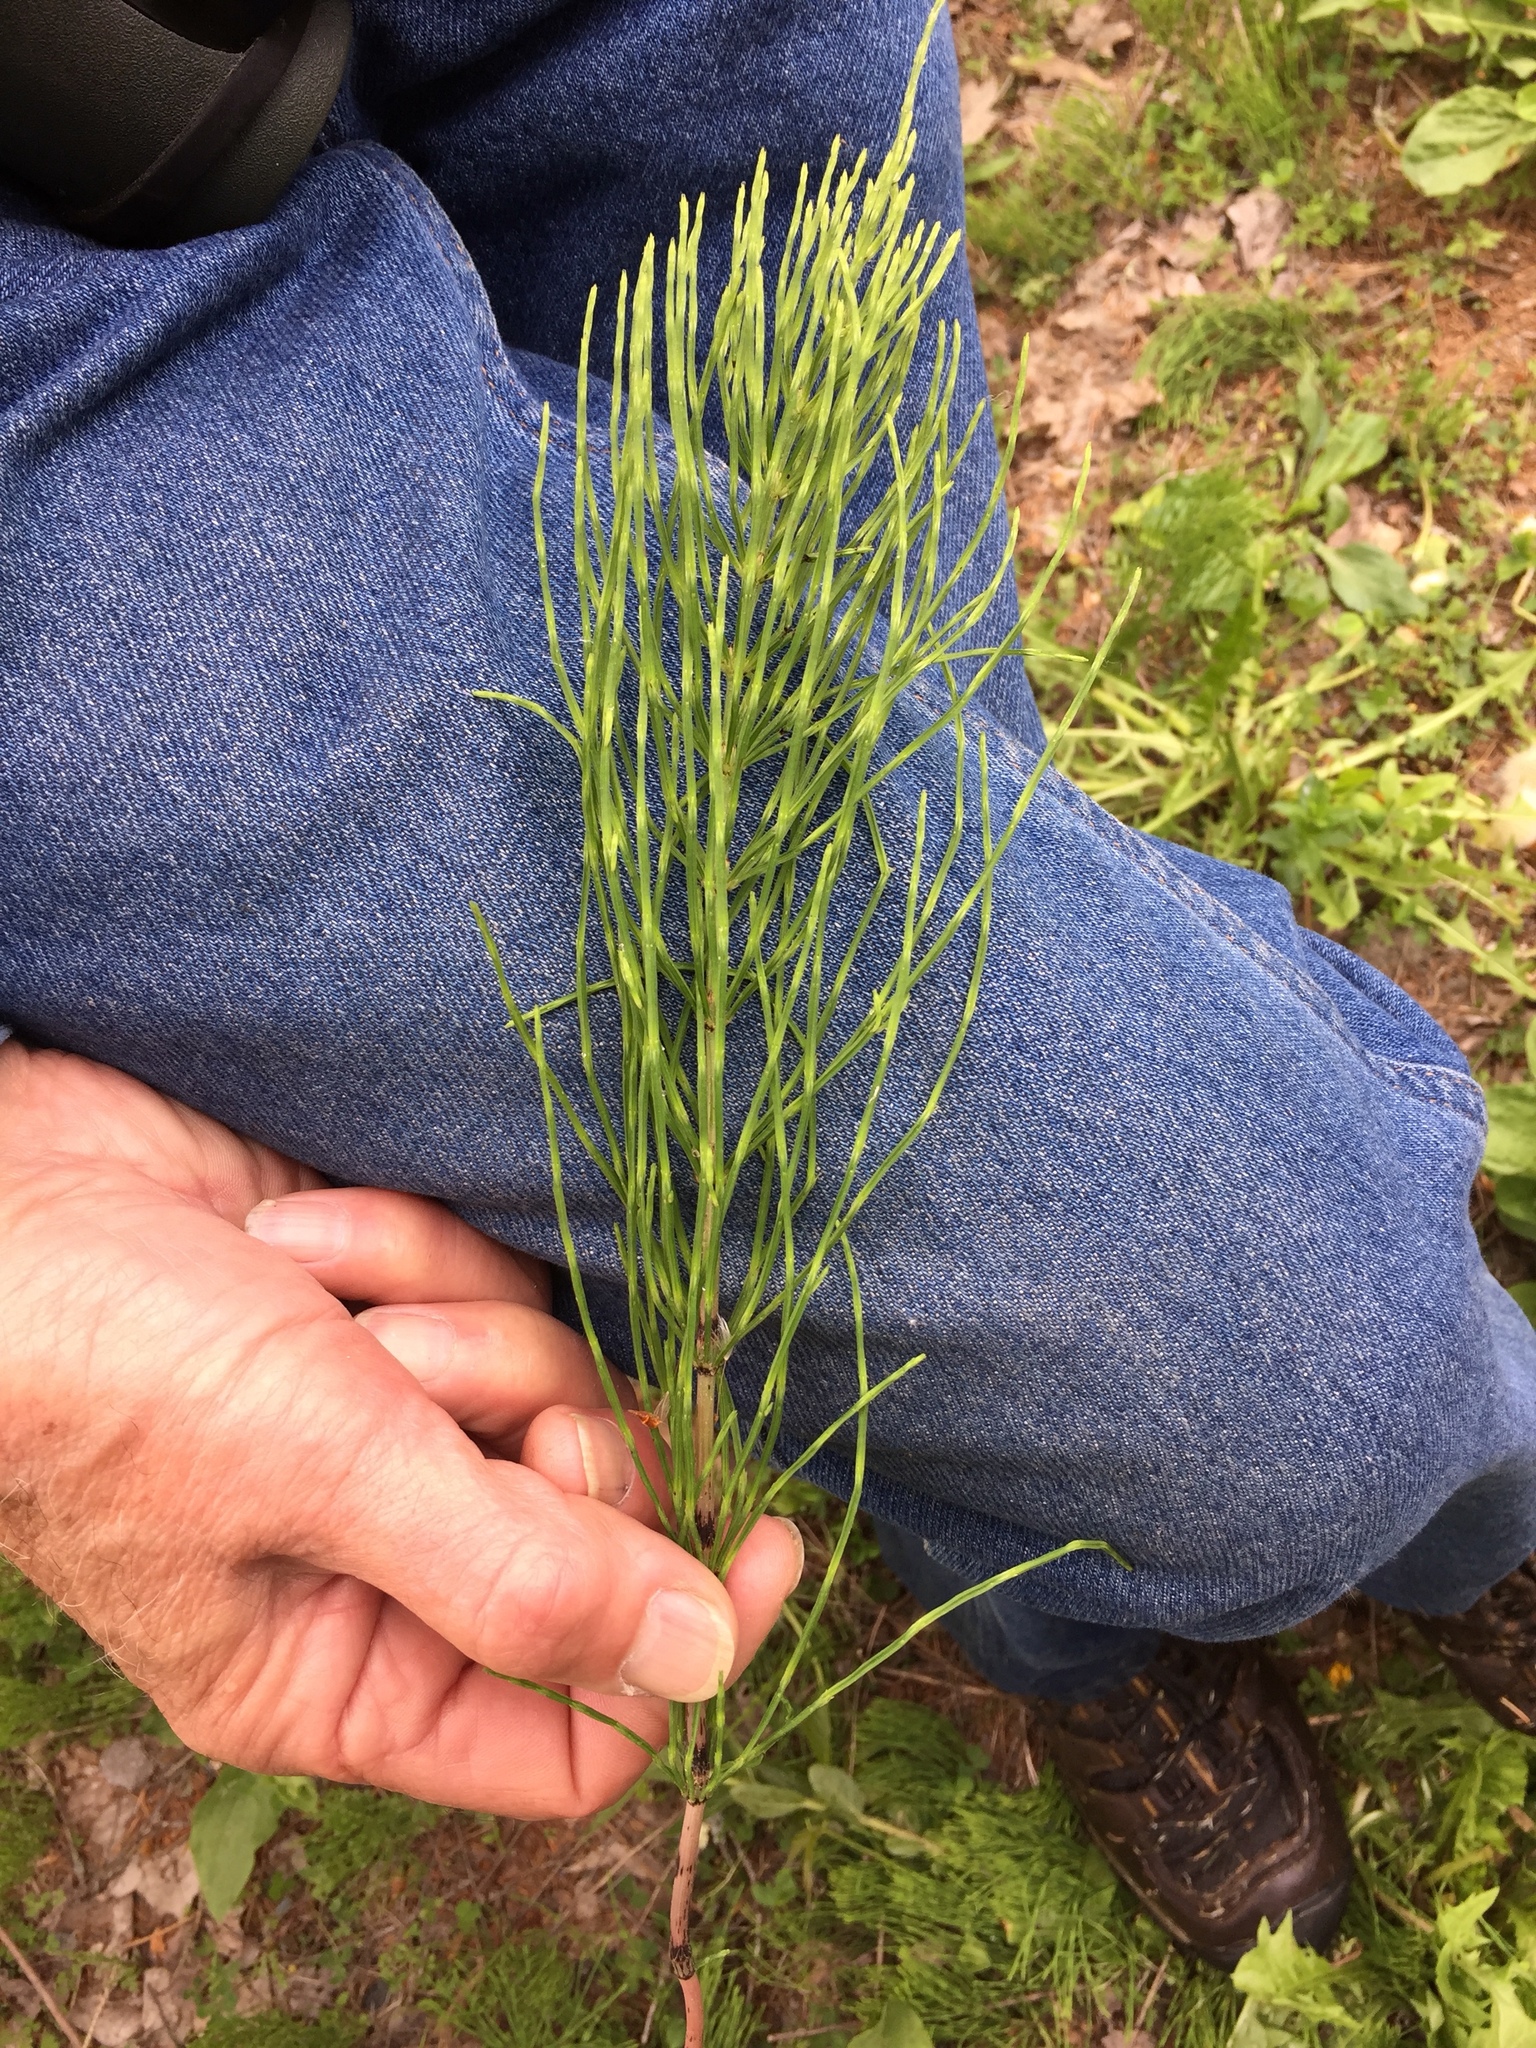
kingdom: Plantae
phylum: Tracheophyta
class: Polypodiopsida
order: Equisetales
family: Equisetaceae
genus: Equisetum
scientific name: Equisetum arvense
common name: Field horsetail
